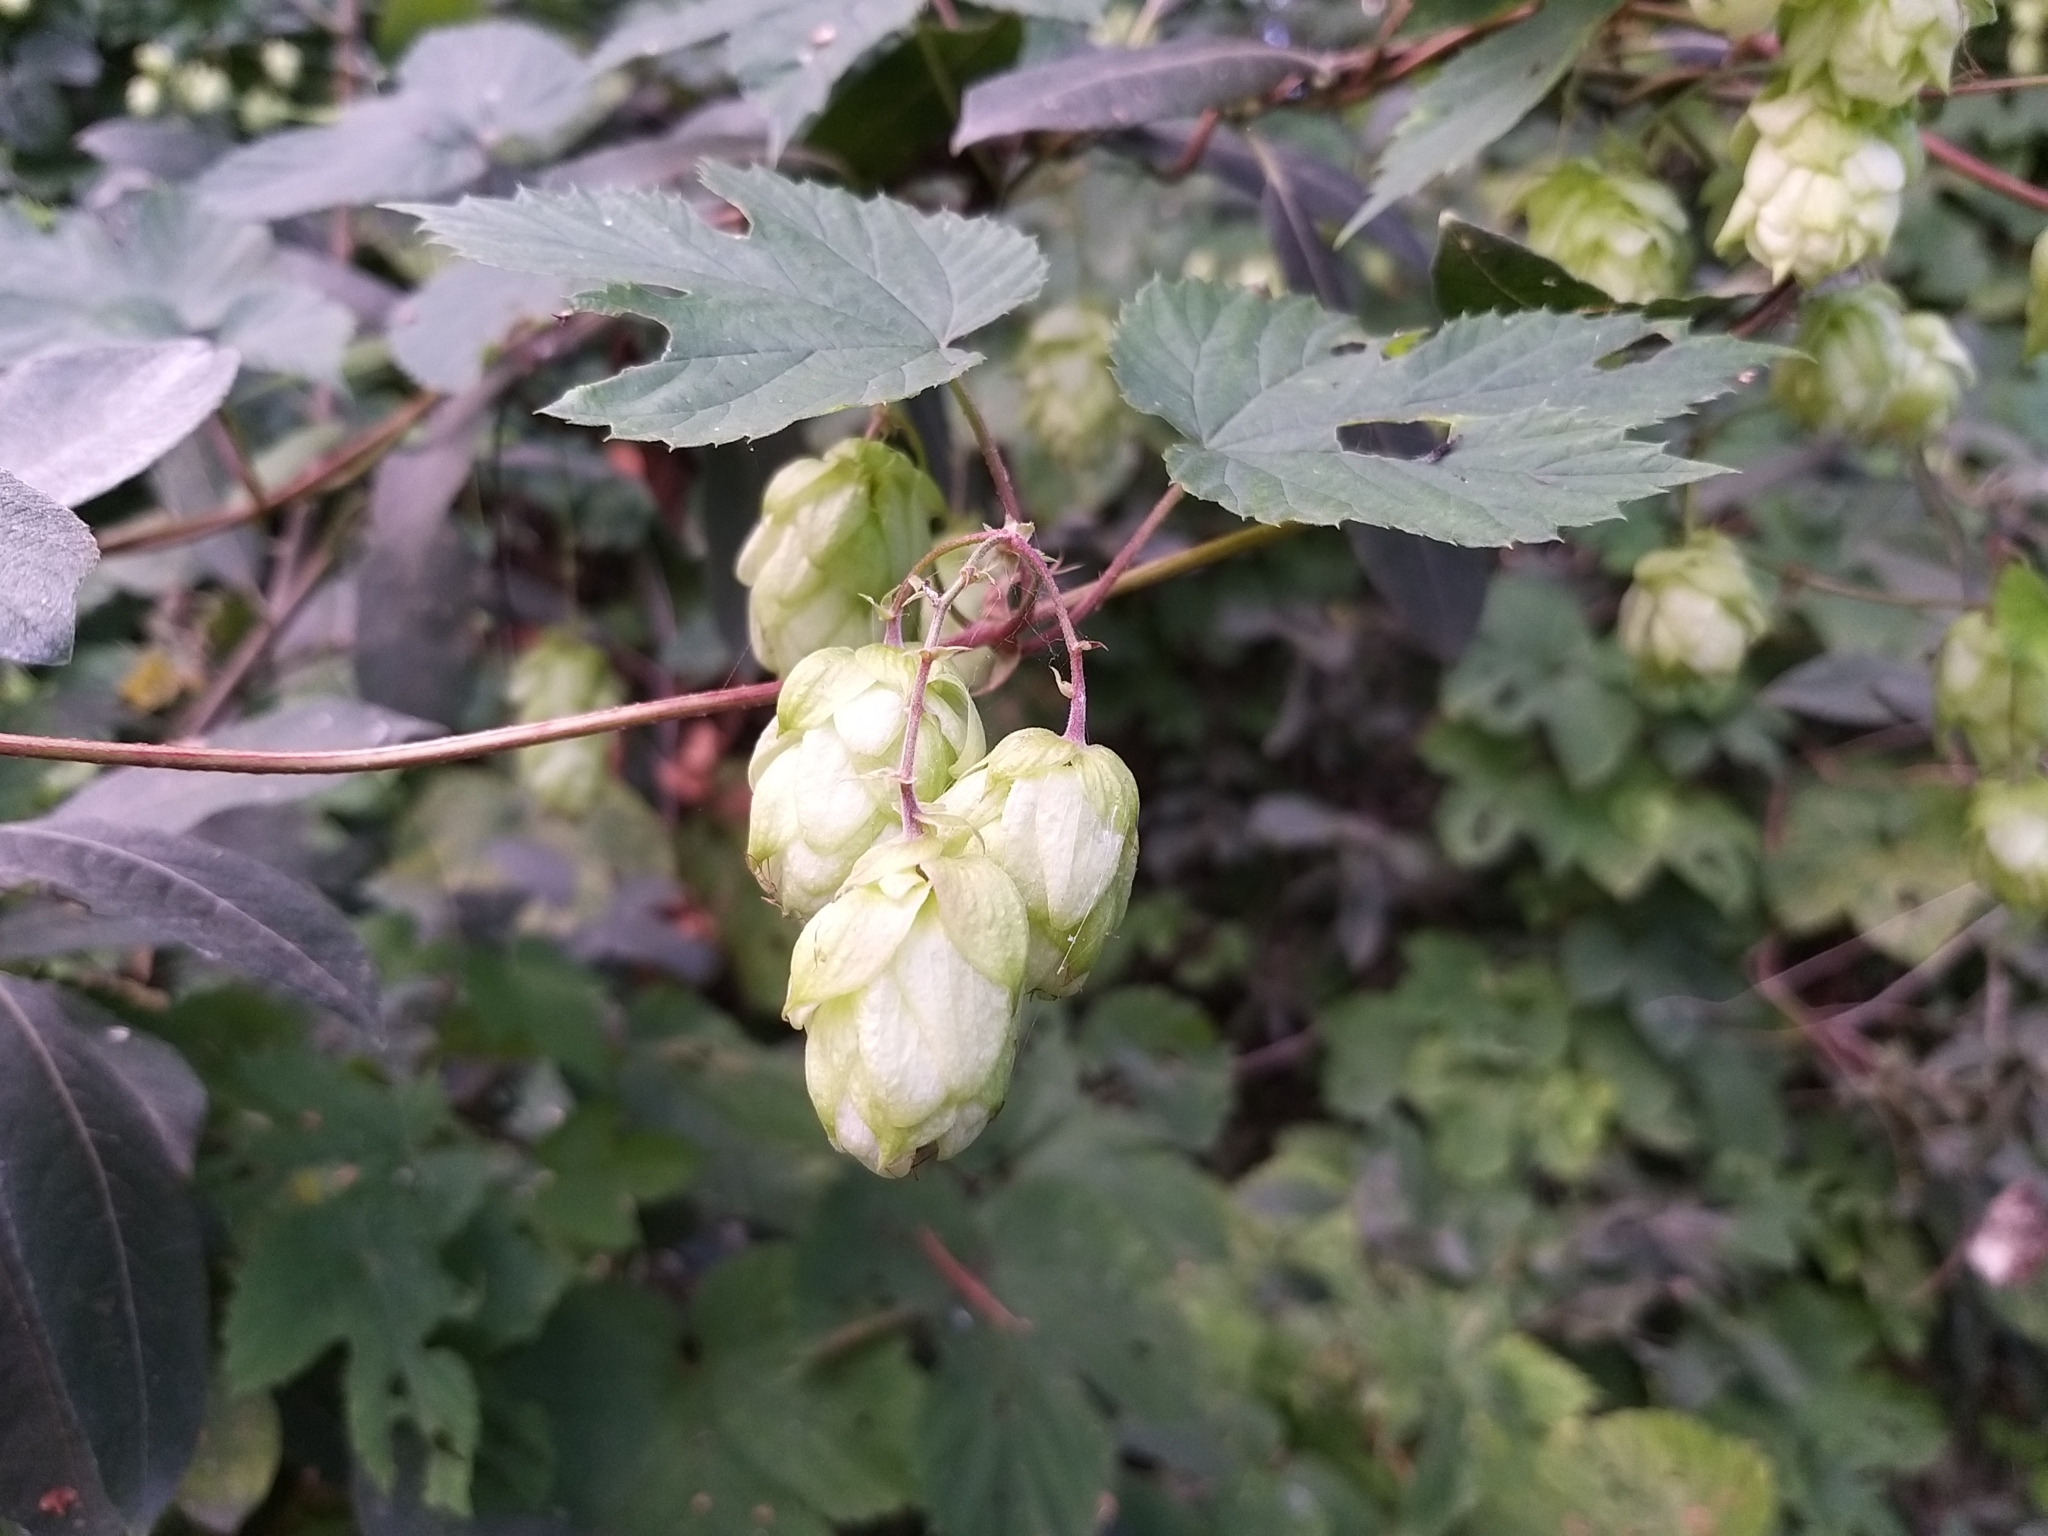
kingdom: Plantae
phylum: Tracheophyta
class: Magnoliopsida
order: Rosales
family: Cannabaceae
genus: Humulus
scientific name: Humulus lupulus
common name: Hop
